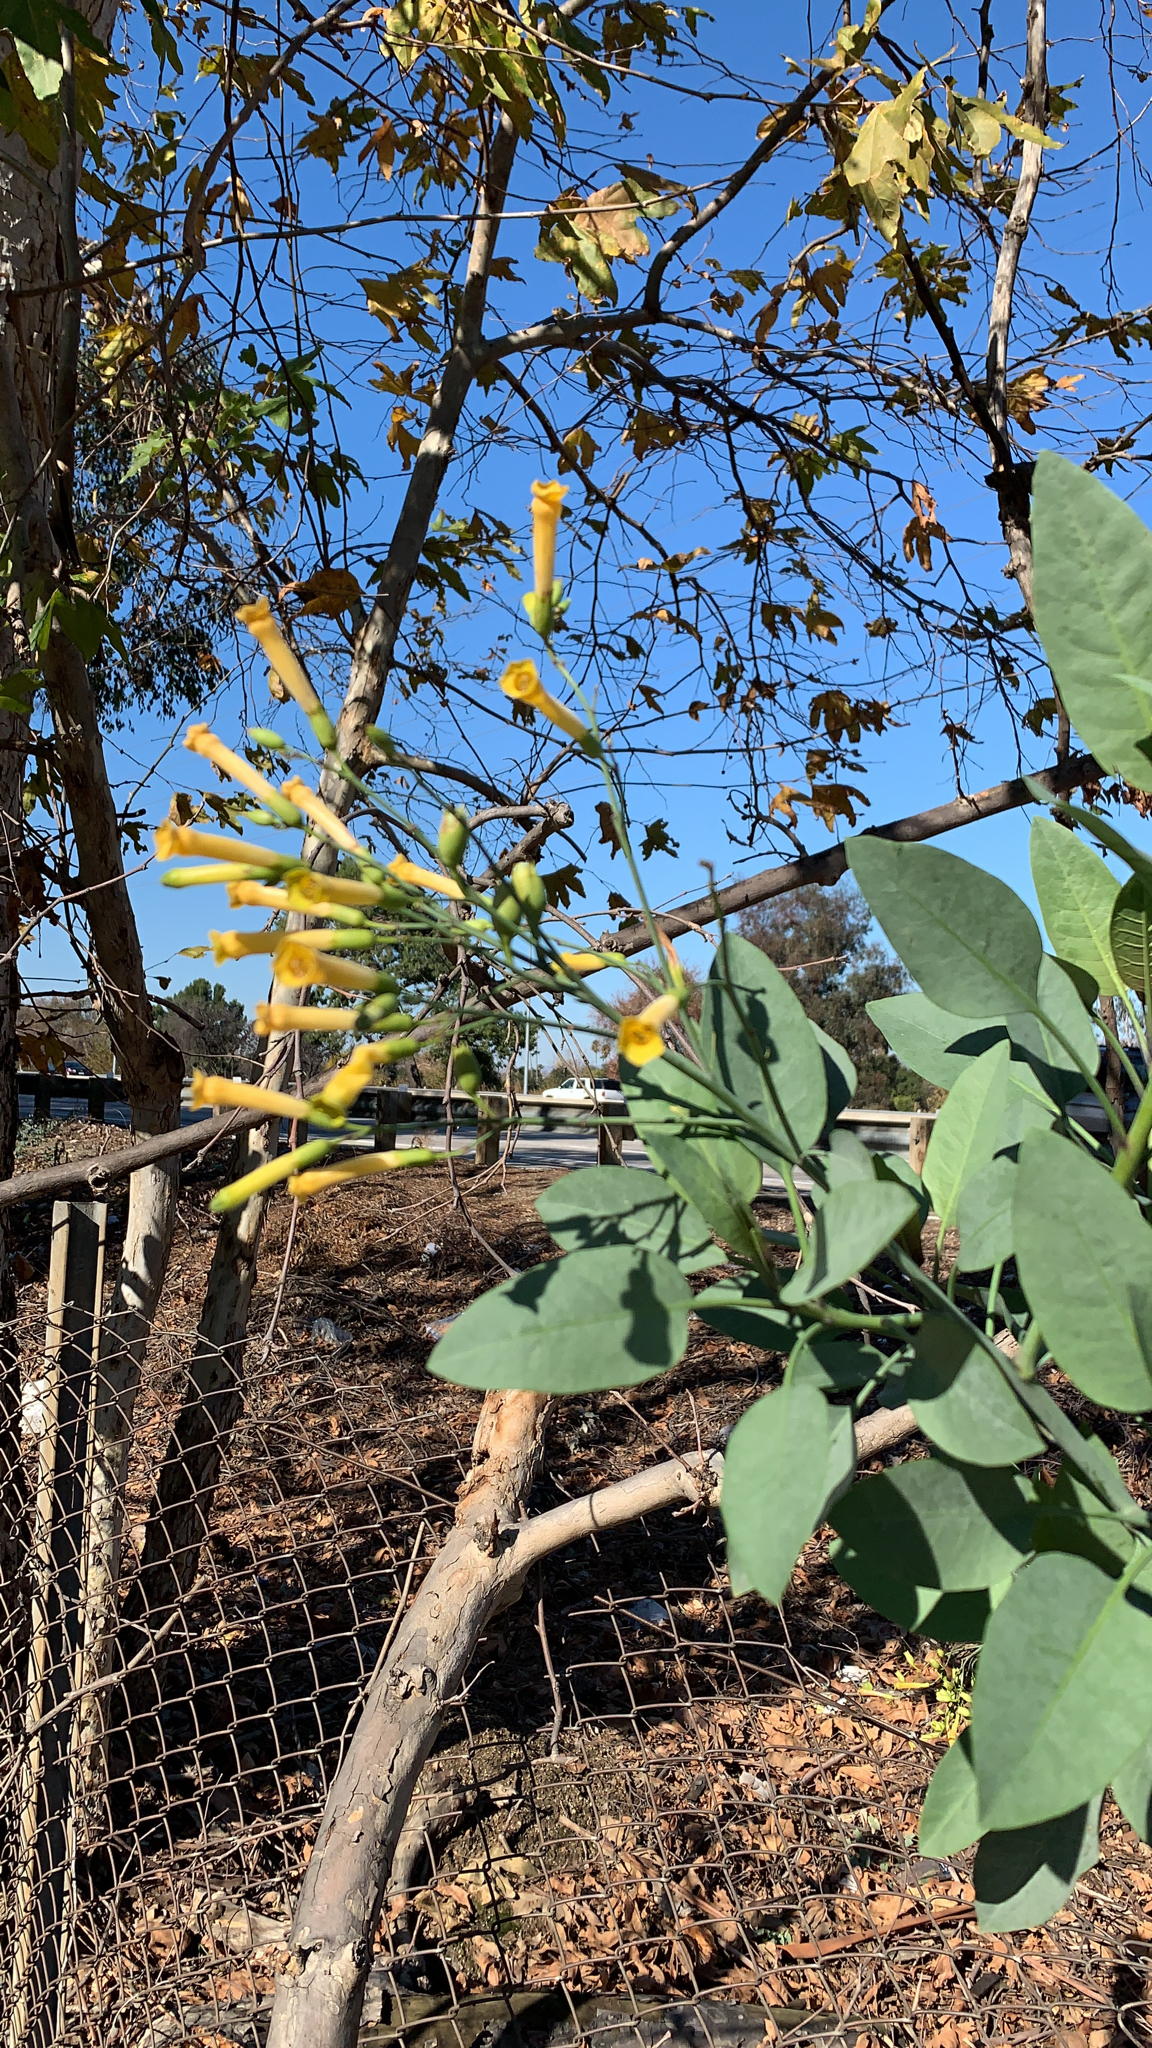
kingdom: Plantae
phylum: Tracheophyta
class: Magnoliopsida
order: Solanales
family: Solanaceae
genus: Nicotiana
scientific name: Nicotiana glauca
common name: Tree tobacco
